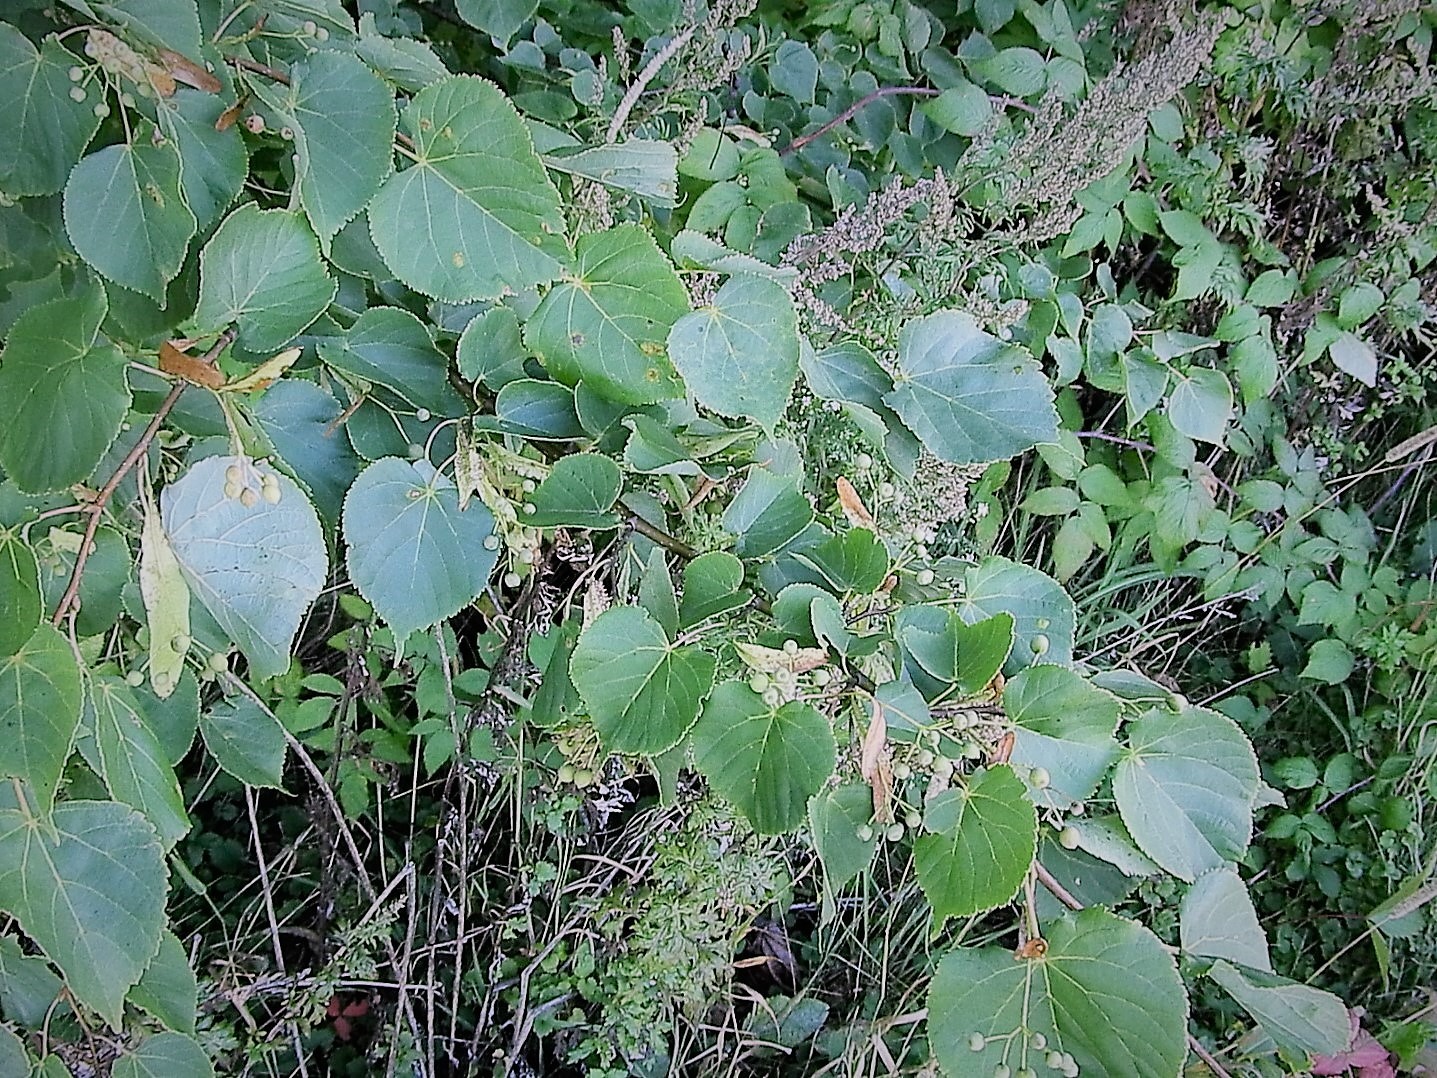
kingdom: Plantae
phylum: Tracheophyta
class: Magnoliopsida
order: Malvales
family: Malvaceae
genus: Tilia
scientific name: Tilia cordata
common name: Small-leaved lime
